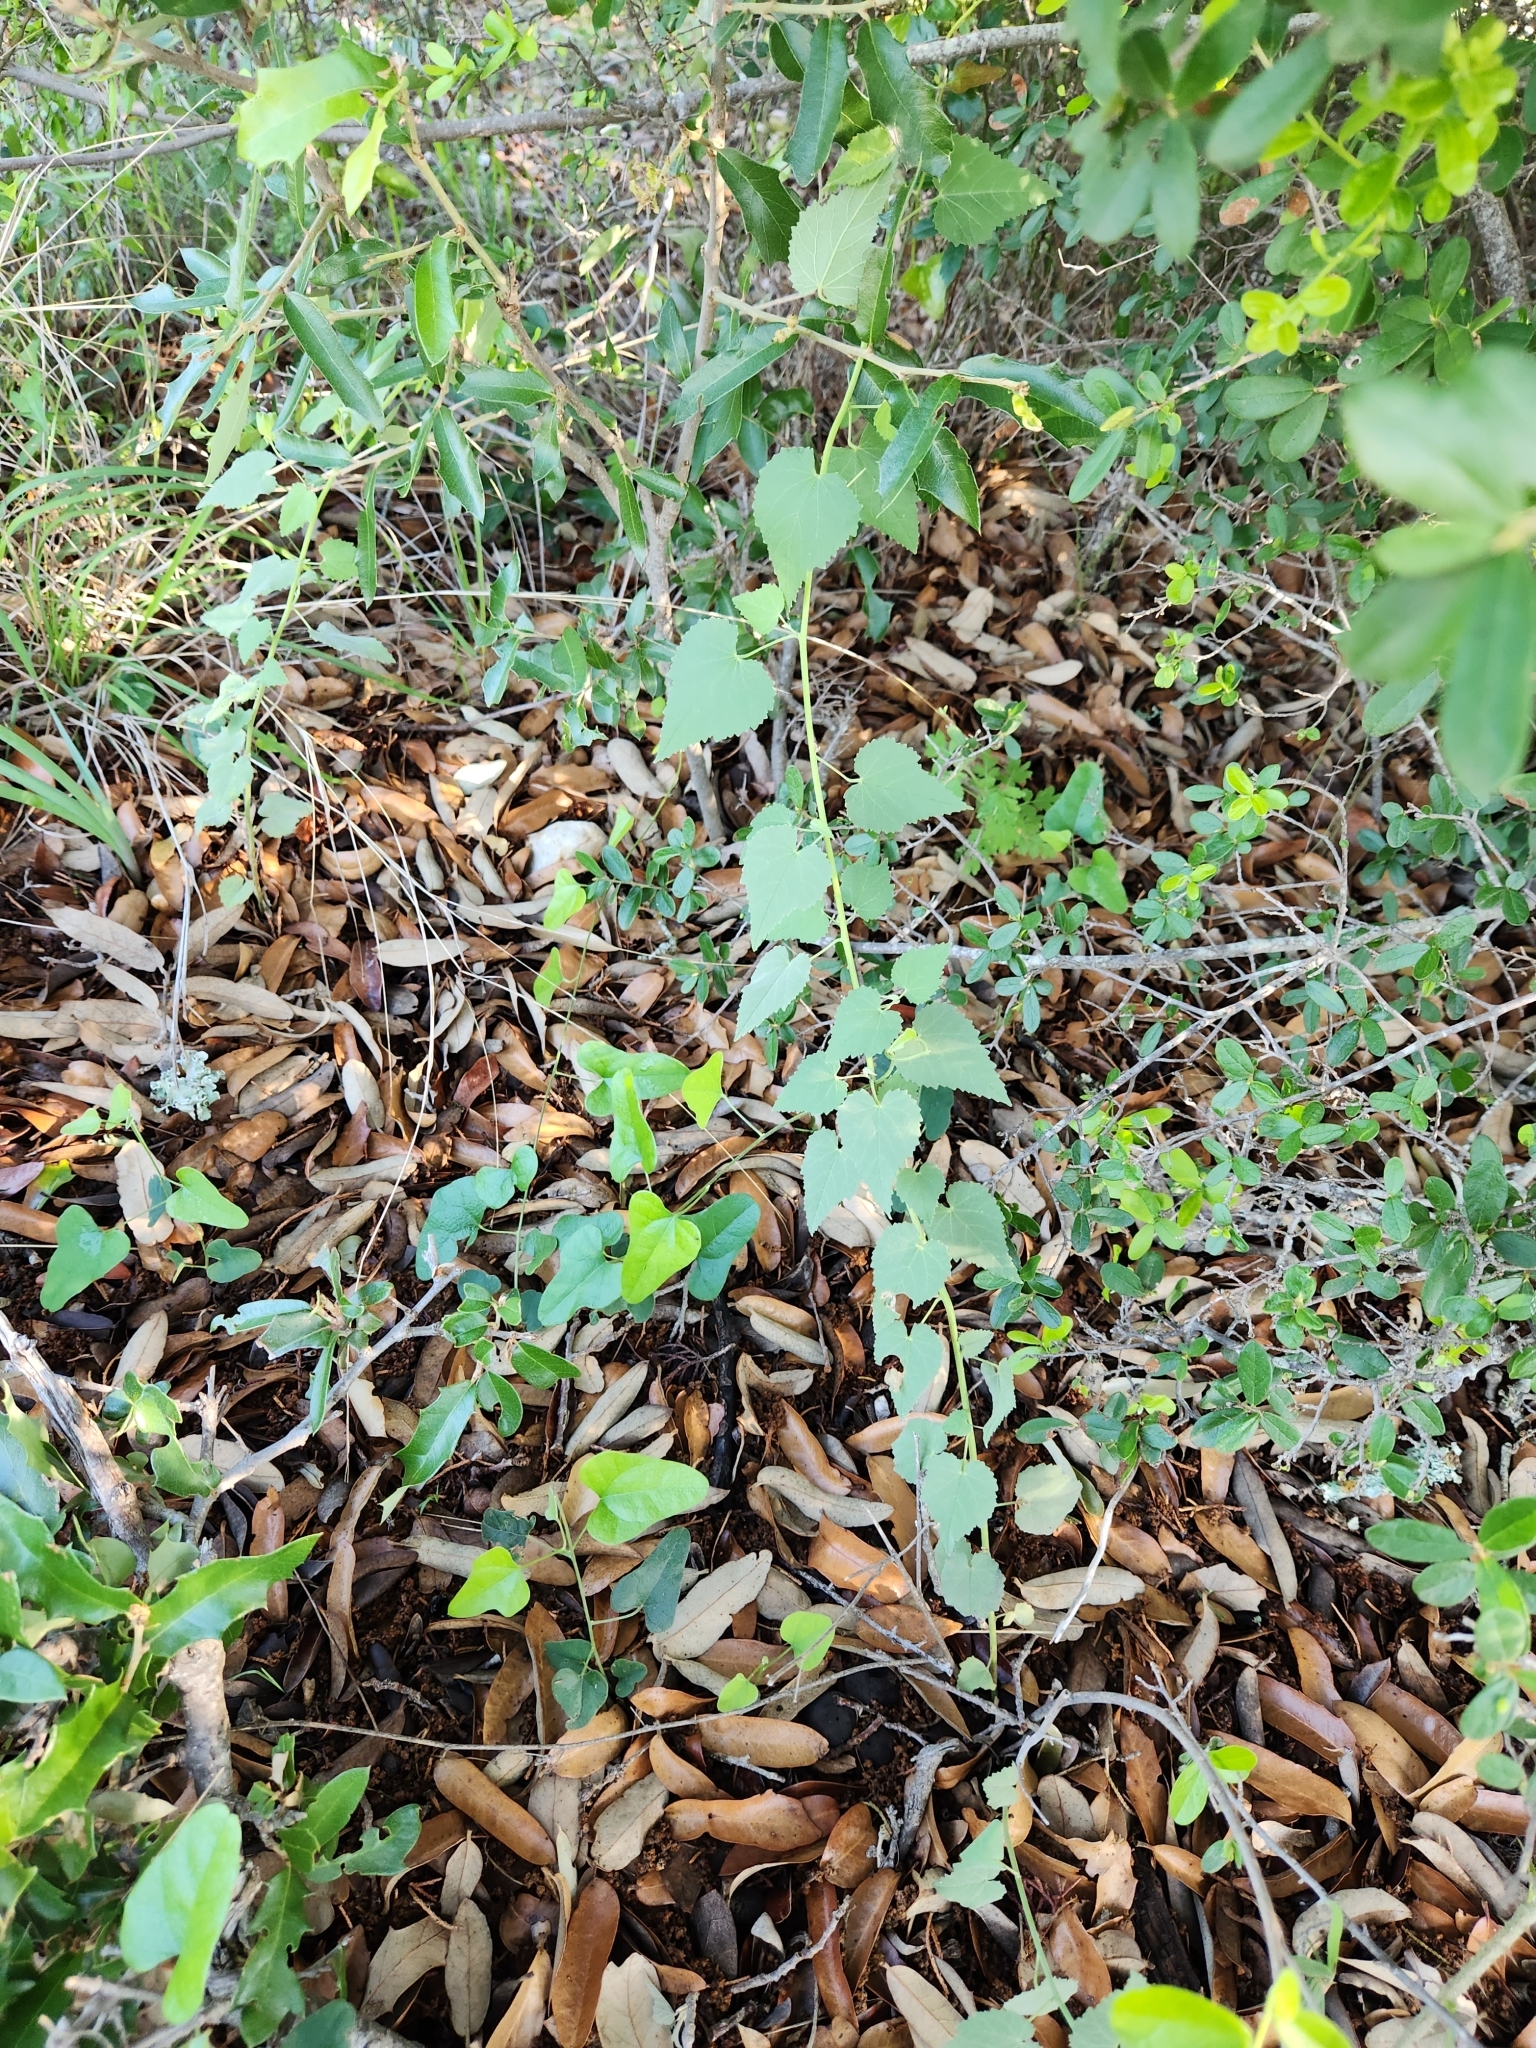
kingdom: Plantae
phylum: Tracheophyta
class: Magnoliopsida
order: Malvales
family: Malvaceae
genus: Abutilon
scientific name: Abutilon fruticosum
